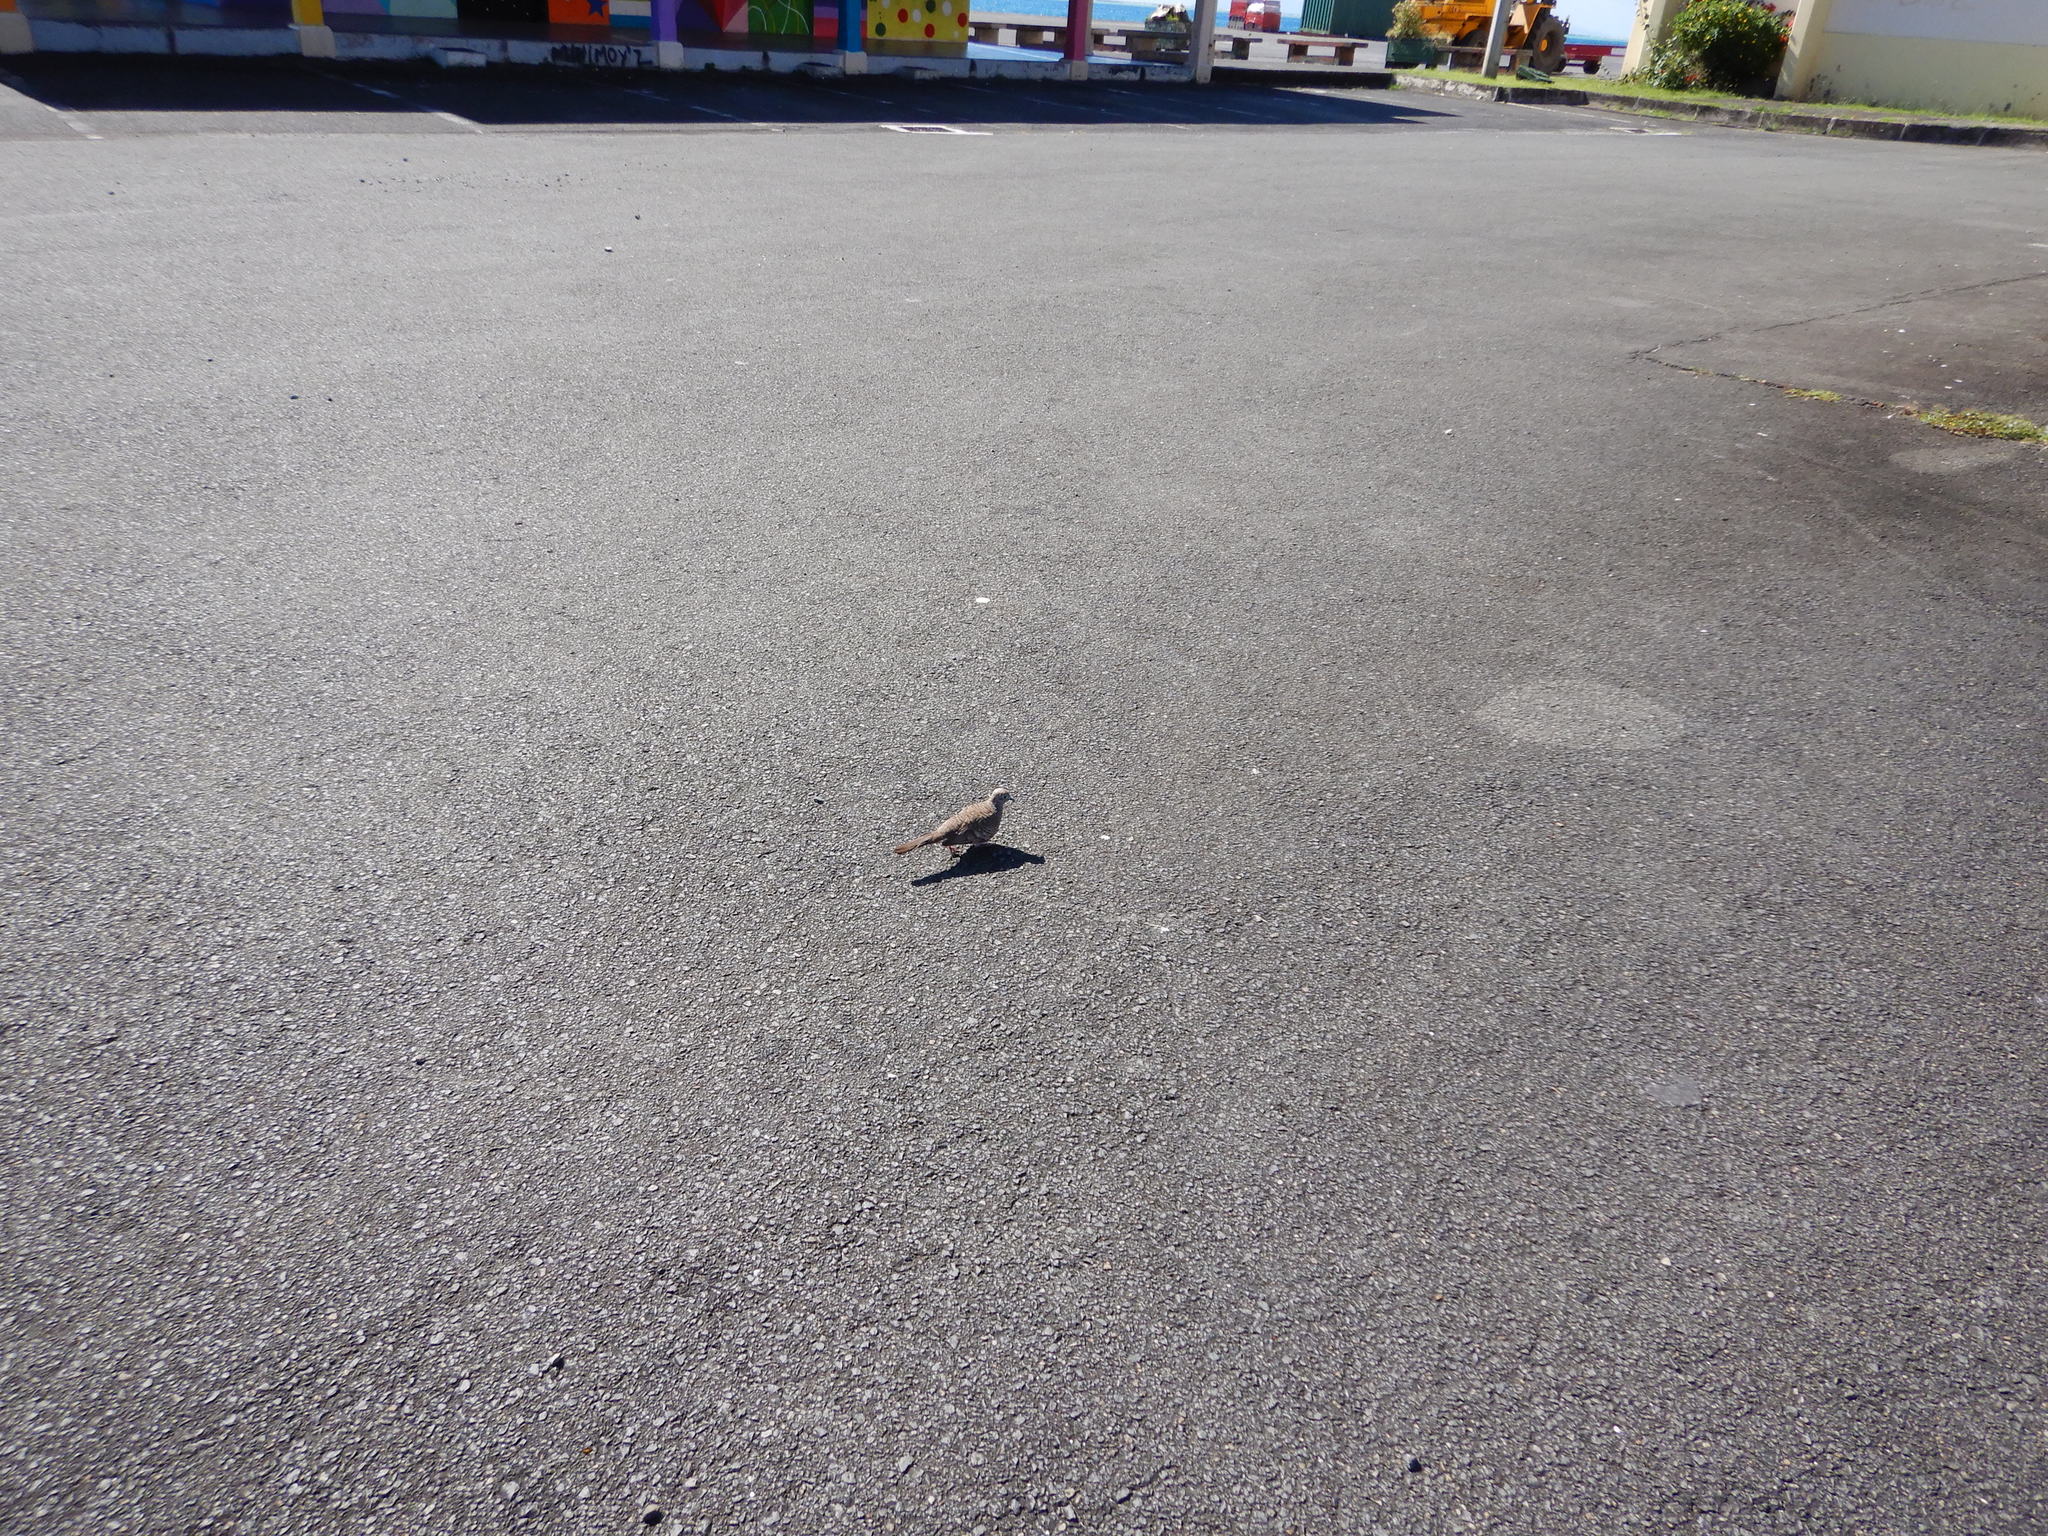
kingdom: Animalia
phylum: Chordata
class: Aves
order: Columbiformes
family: Columbidae
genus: Geopelia
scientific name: Geopelia striata
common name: Zebra dove
